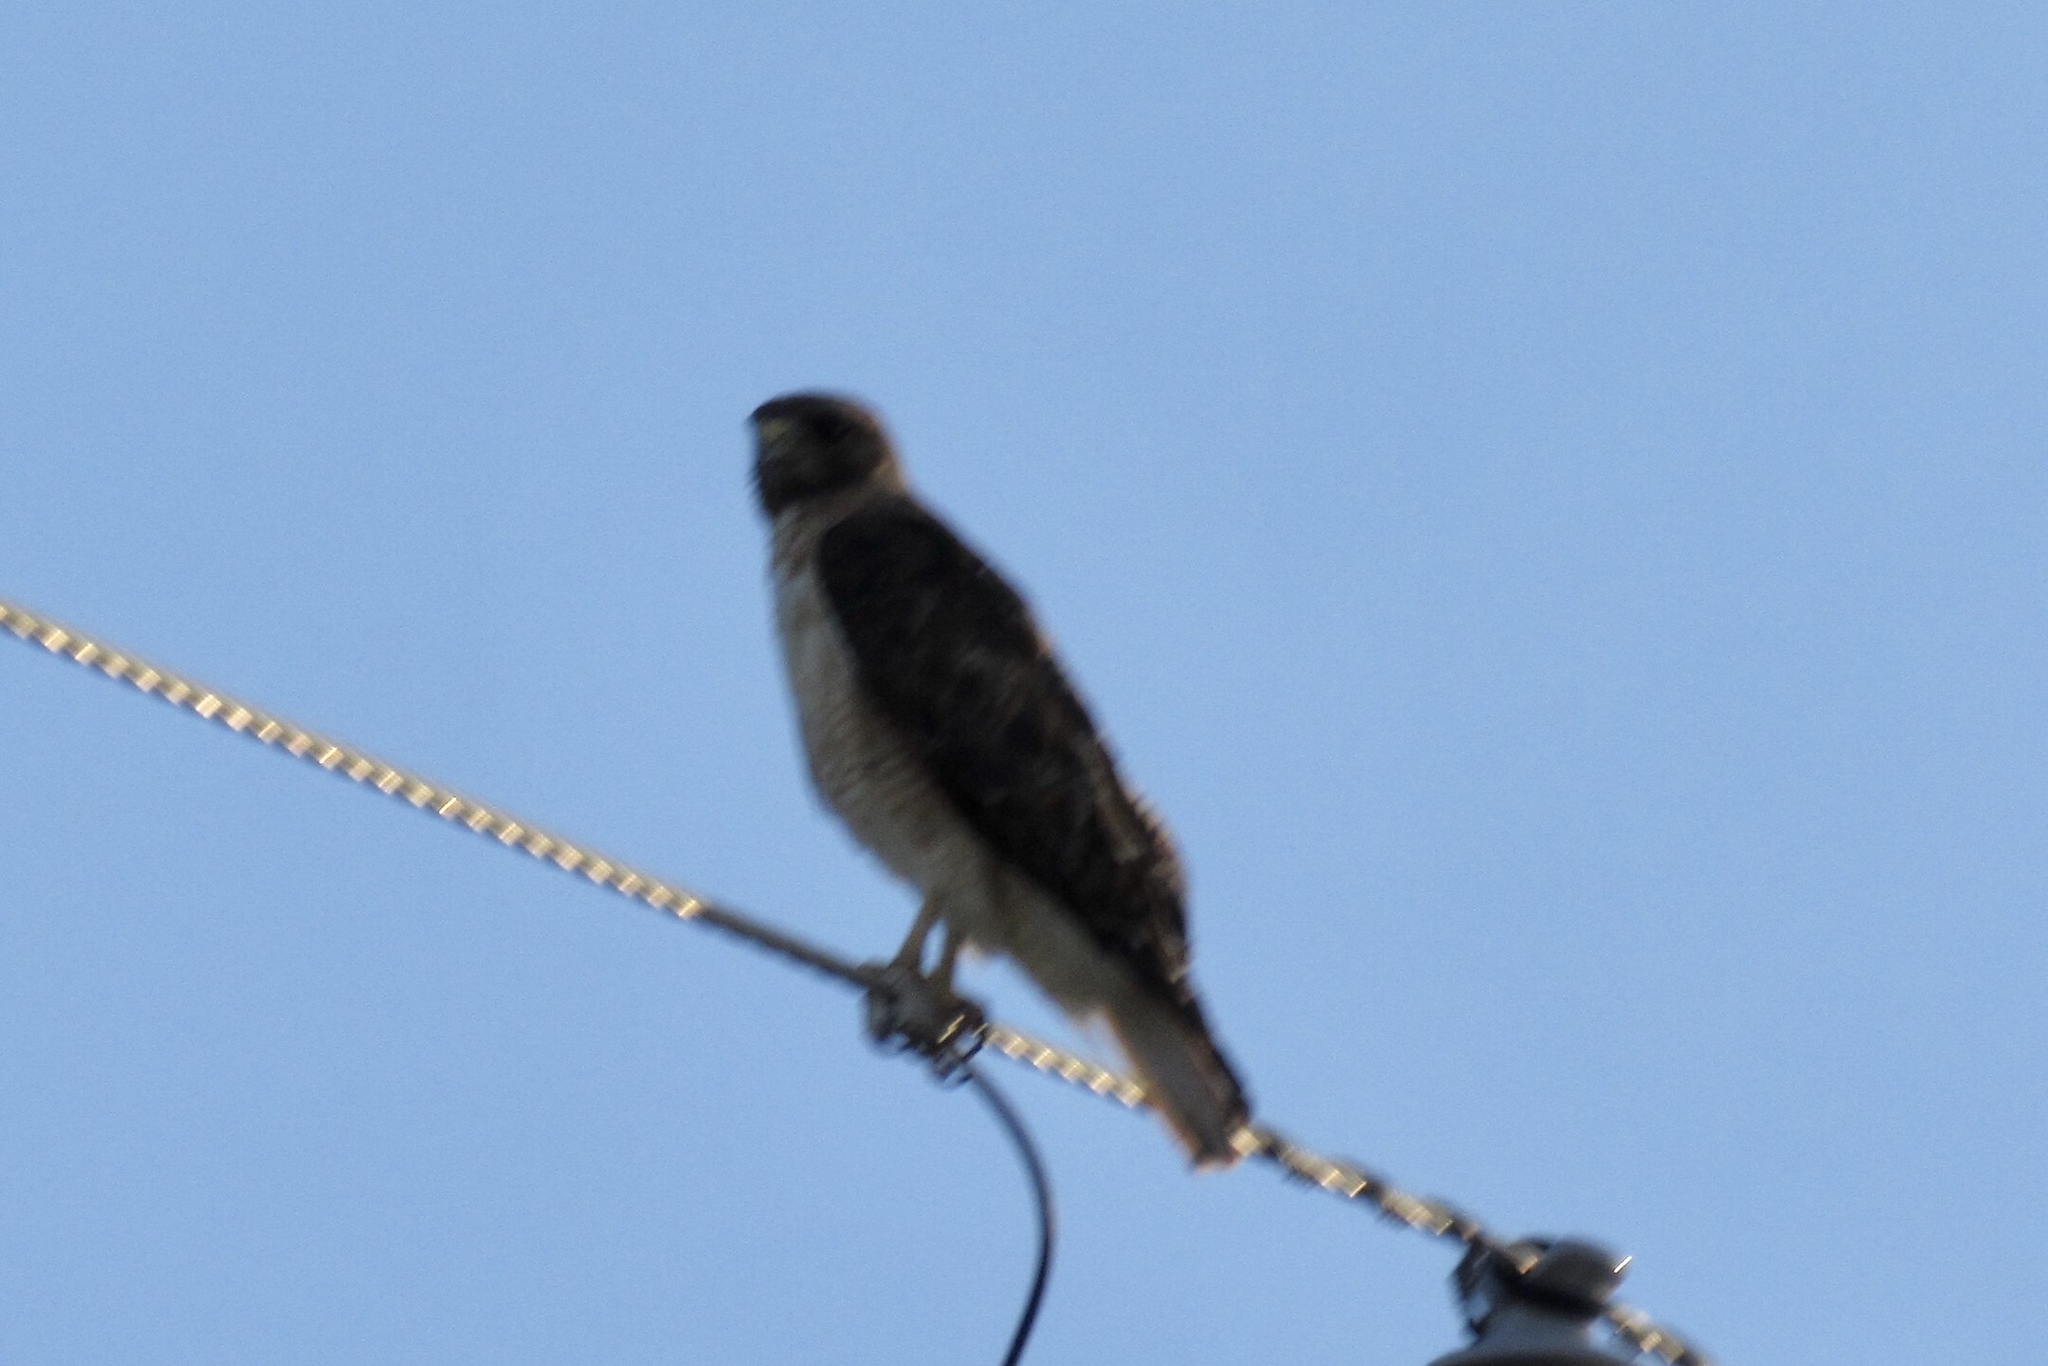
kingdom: Animalia
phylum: Chordata
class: Aves
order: Accipitriformes
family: Accipitridae
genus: Buteo
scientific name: Buteo jamaicensis
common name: Red-tailed hawk
